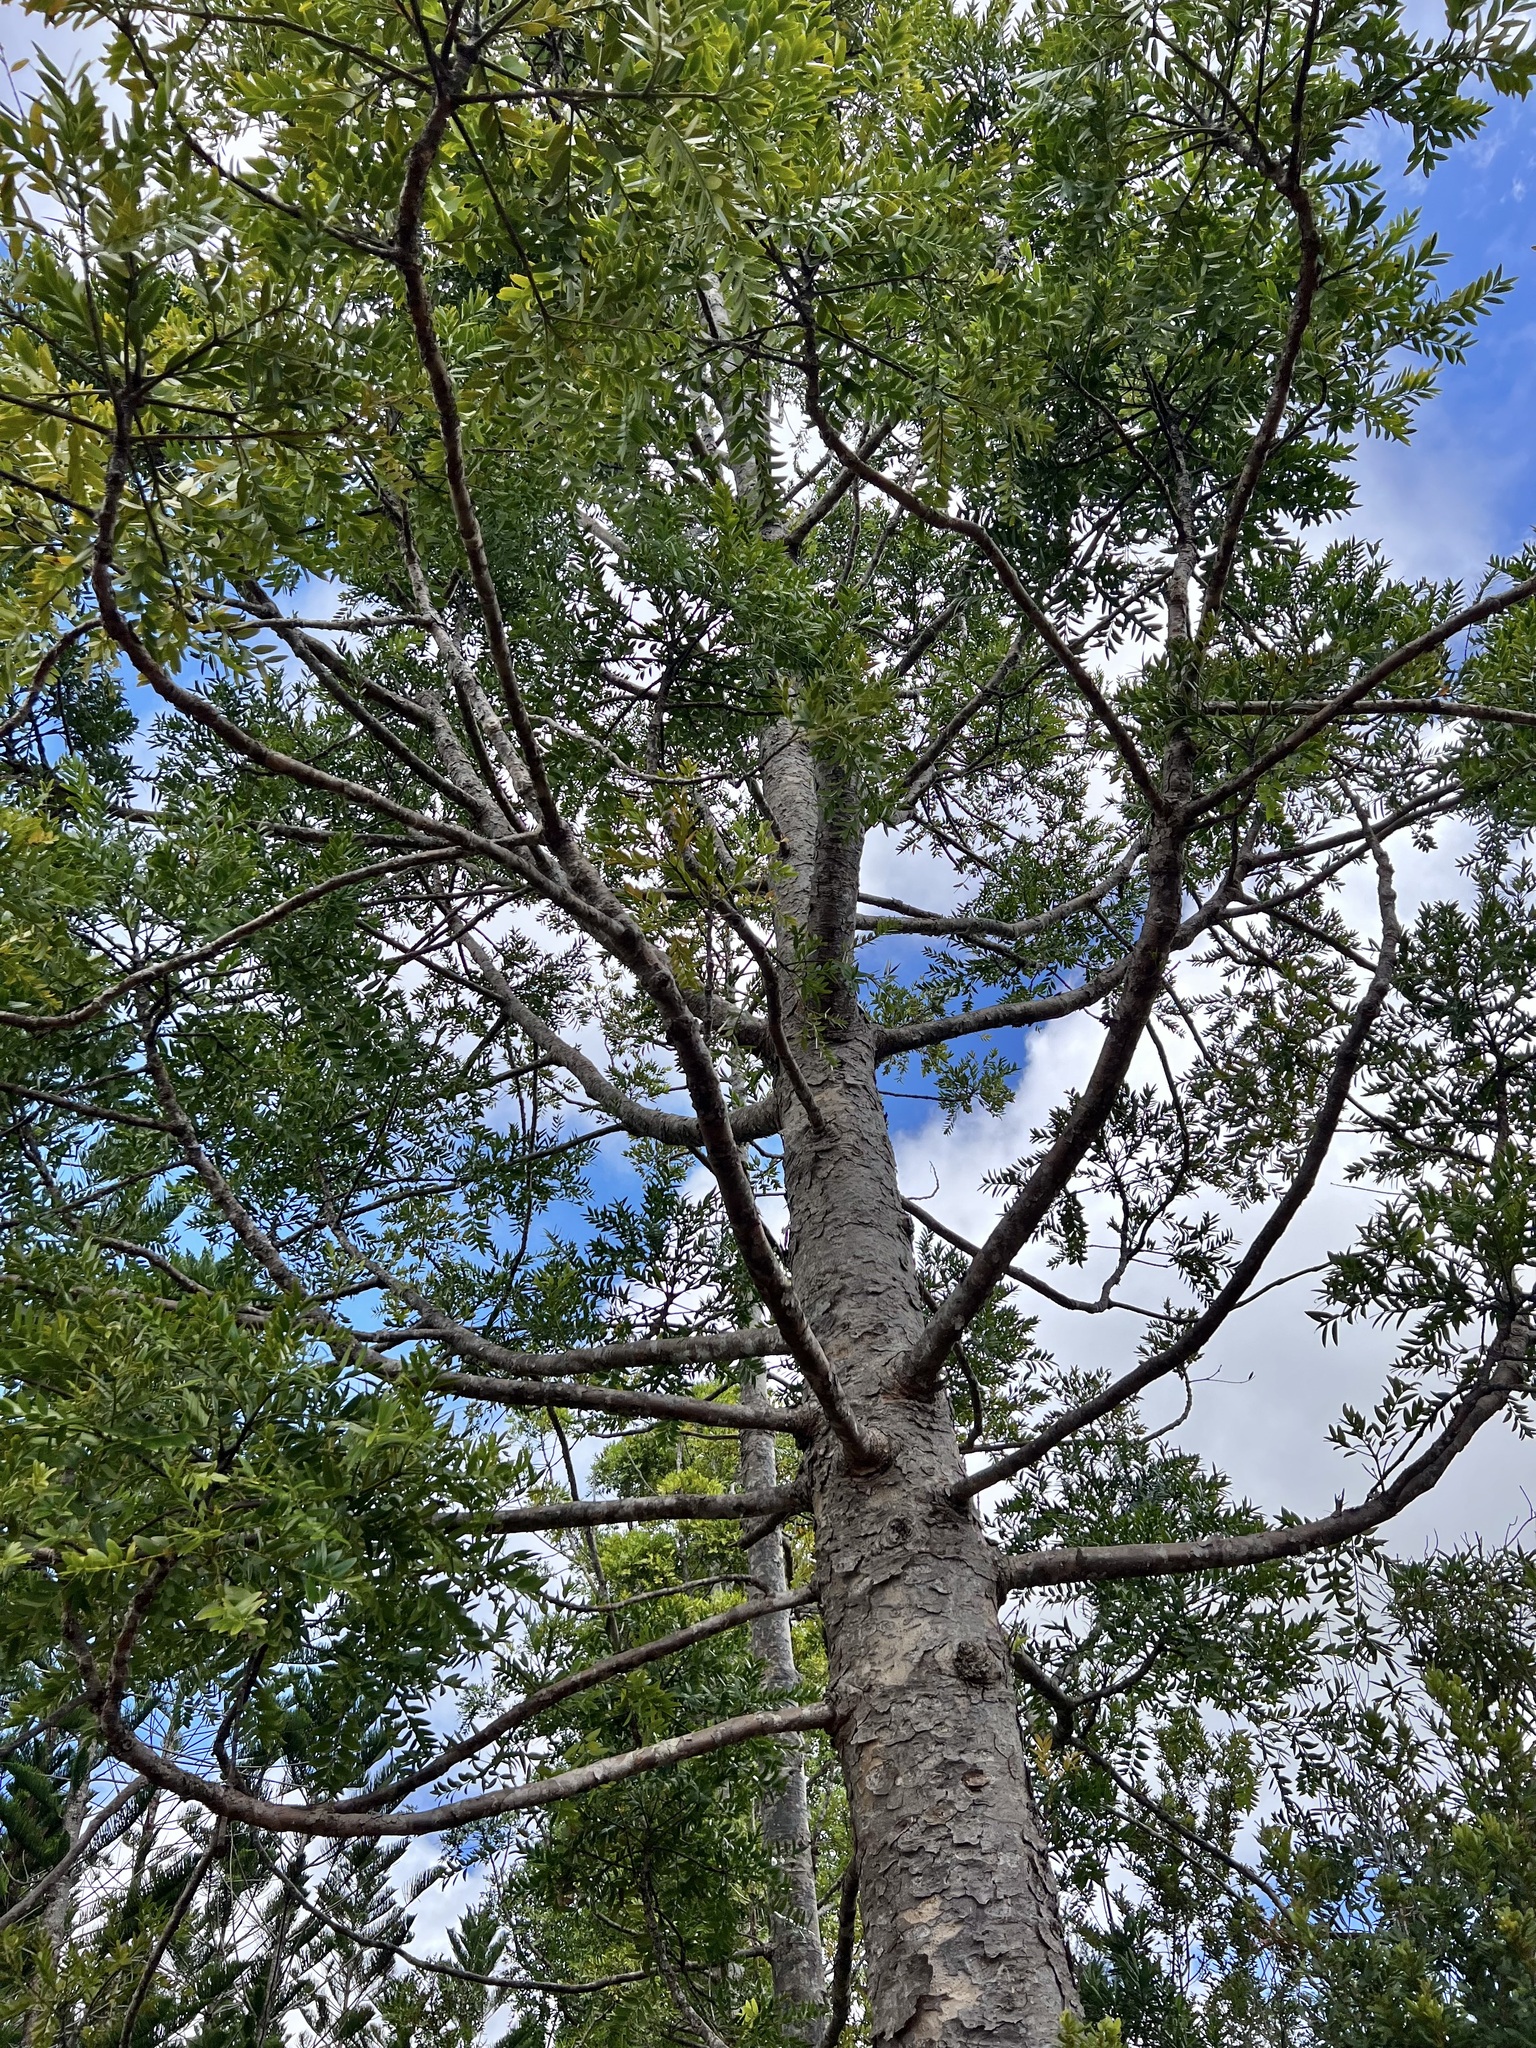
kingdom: Plantae
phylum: Tracheophyta
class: Pinopsida
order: Pinales
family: Araucariaceae
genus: Agathis
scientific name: Agathis lanceolata
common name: Koghis kauri
